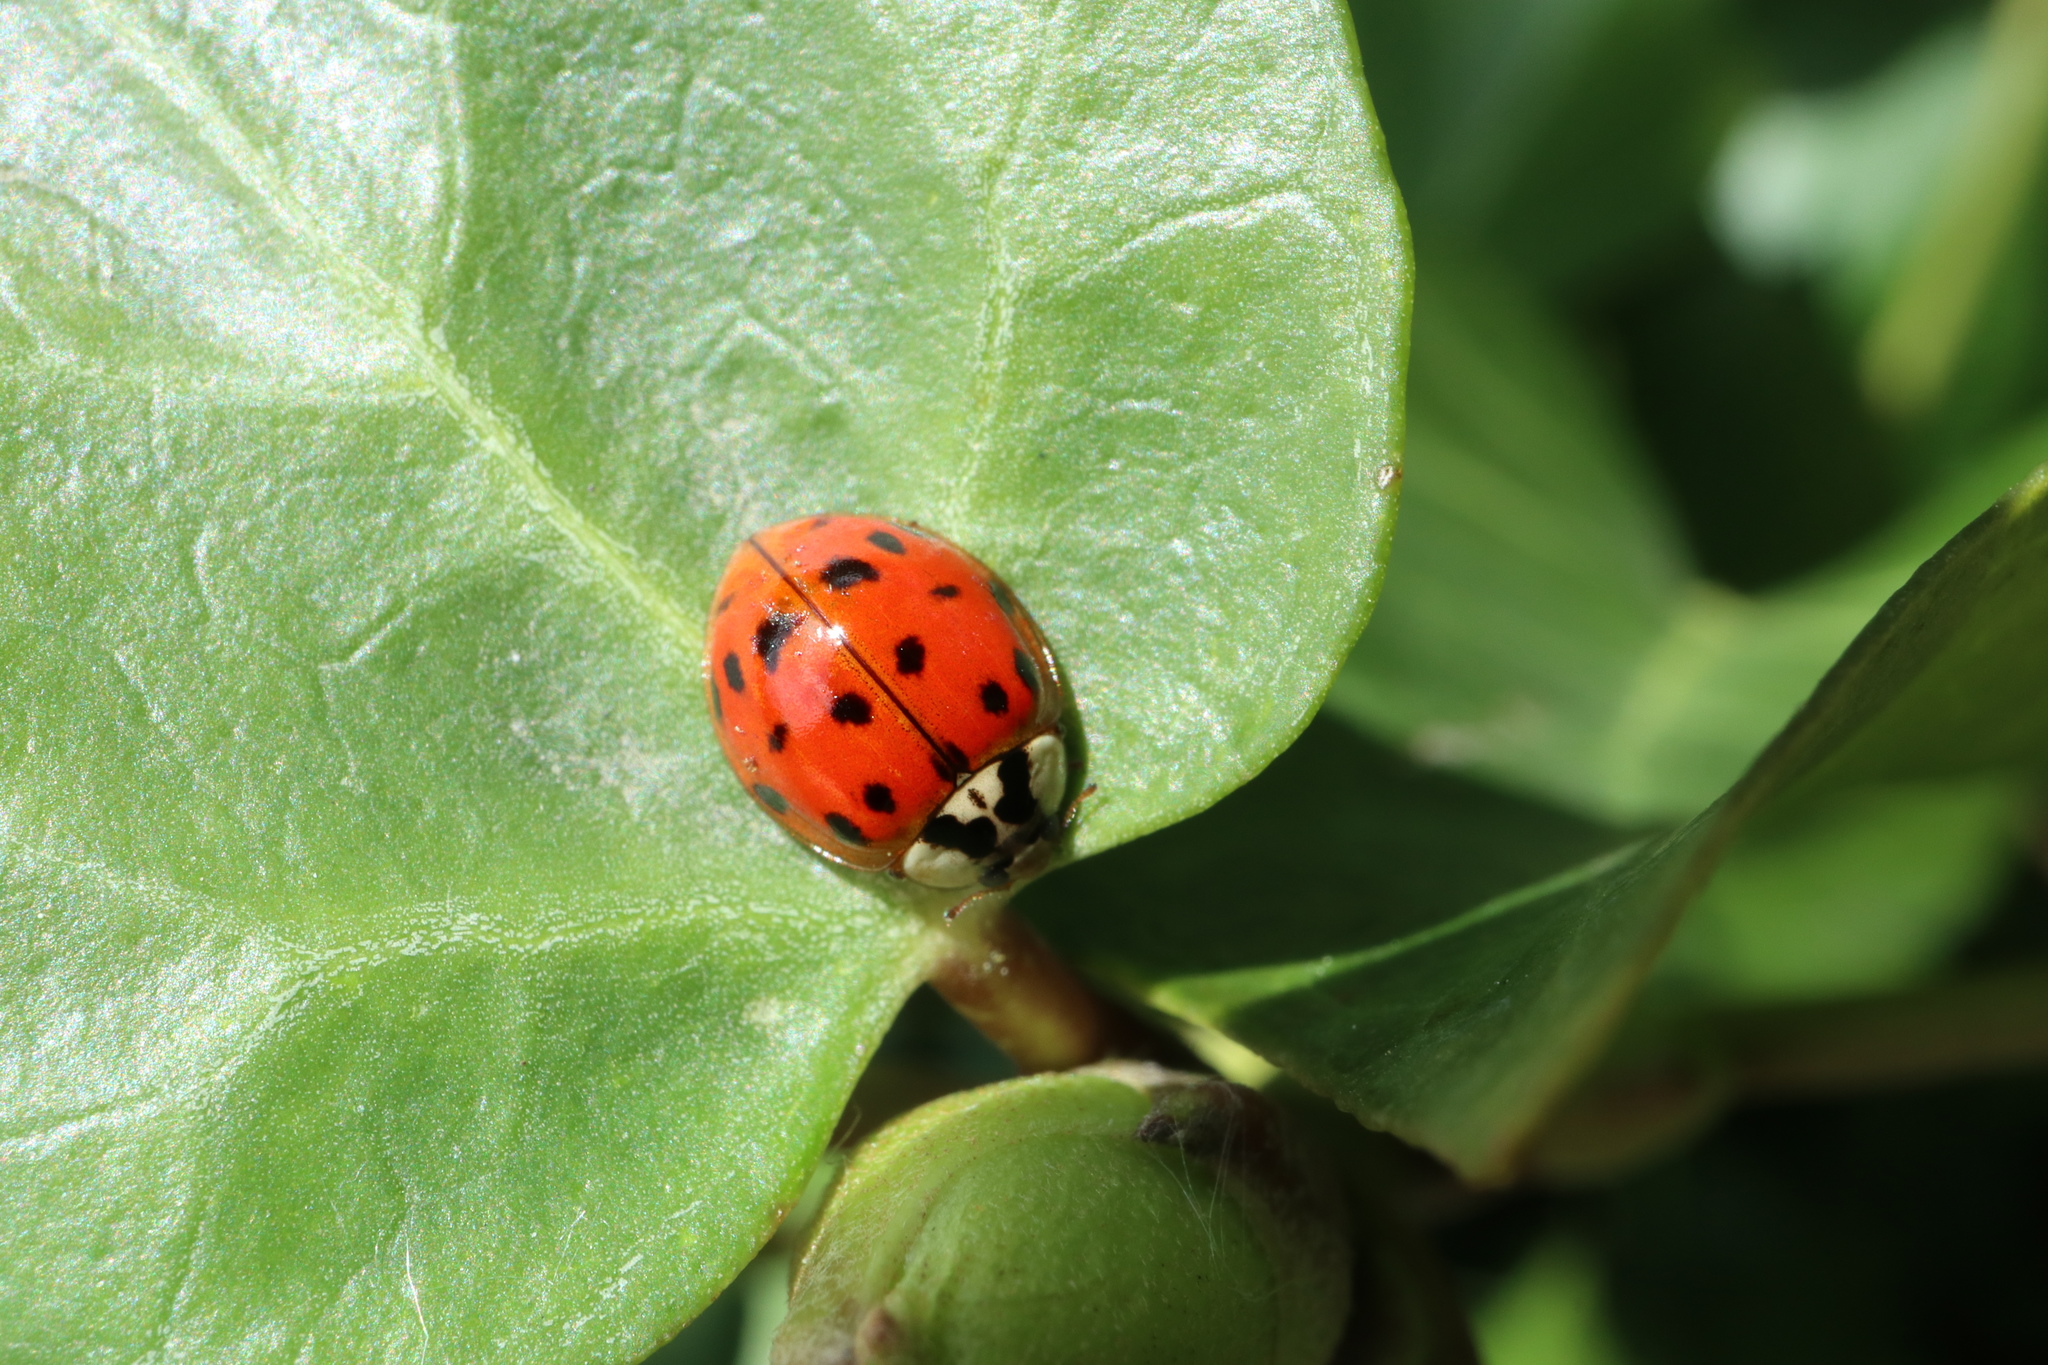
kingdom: Animalia
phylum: Arthropoda
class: Insecta
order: Coleoptera
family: Coccinellidae
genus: Harmonia
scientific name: Harmonia axyridis
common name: Harlequin ladybird
